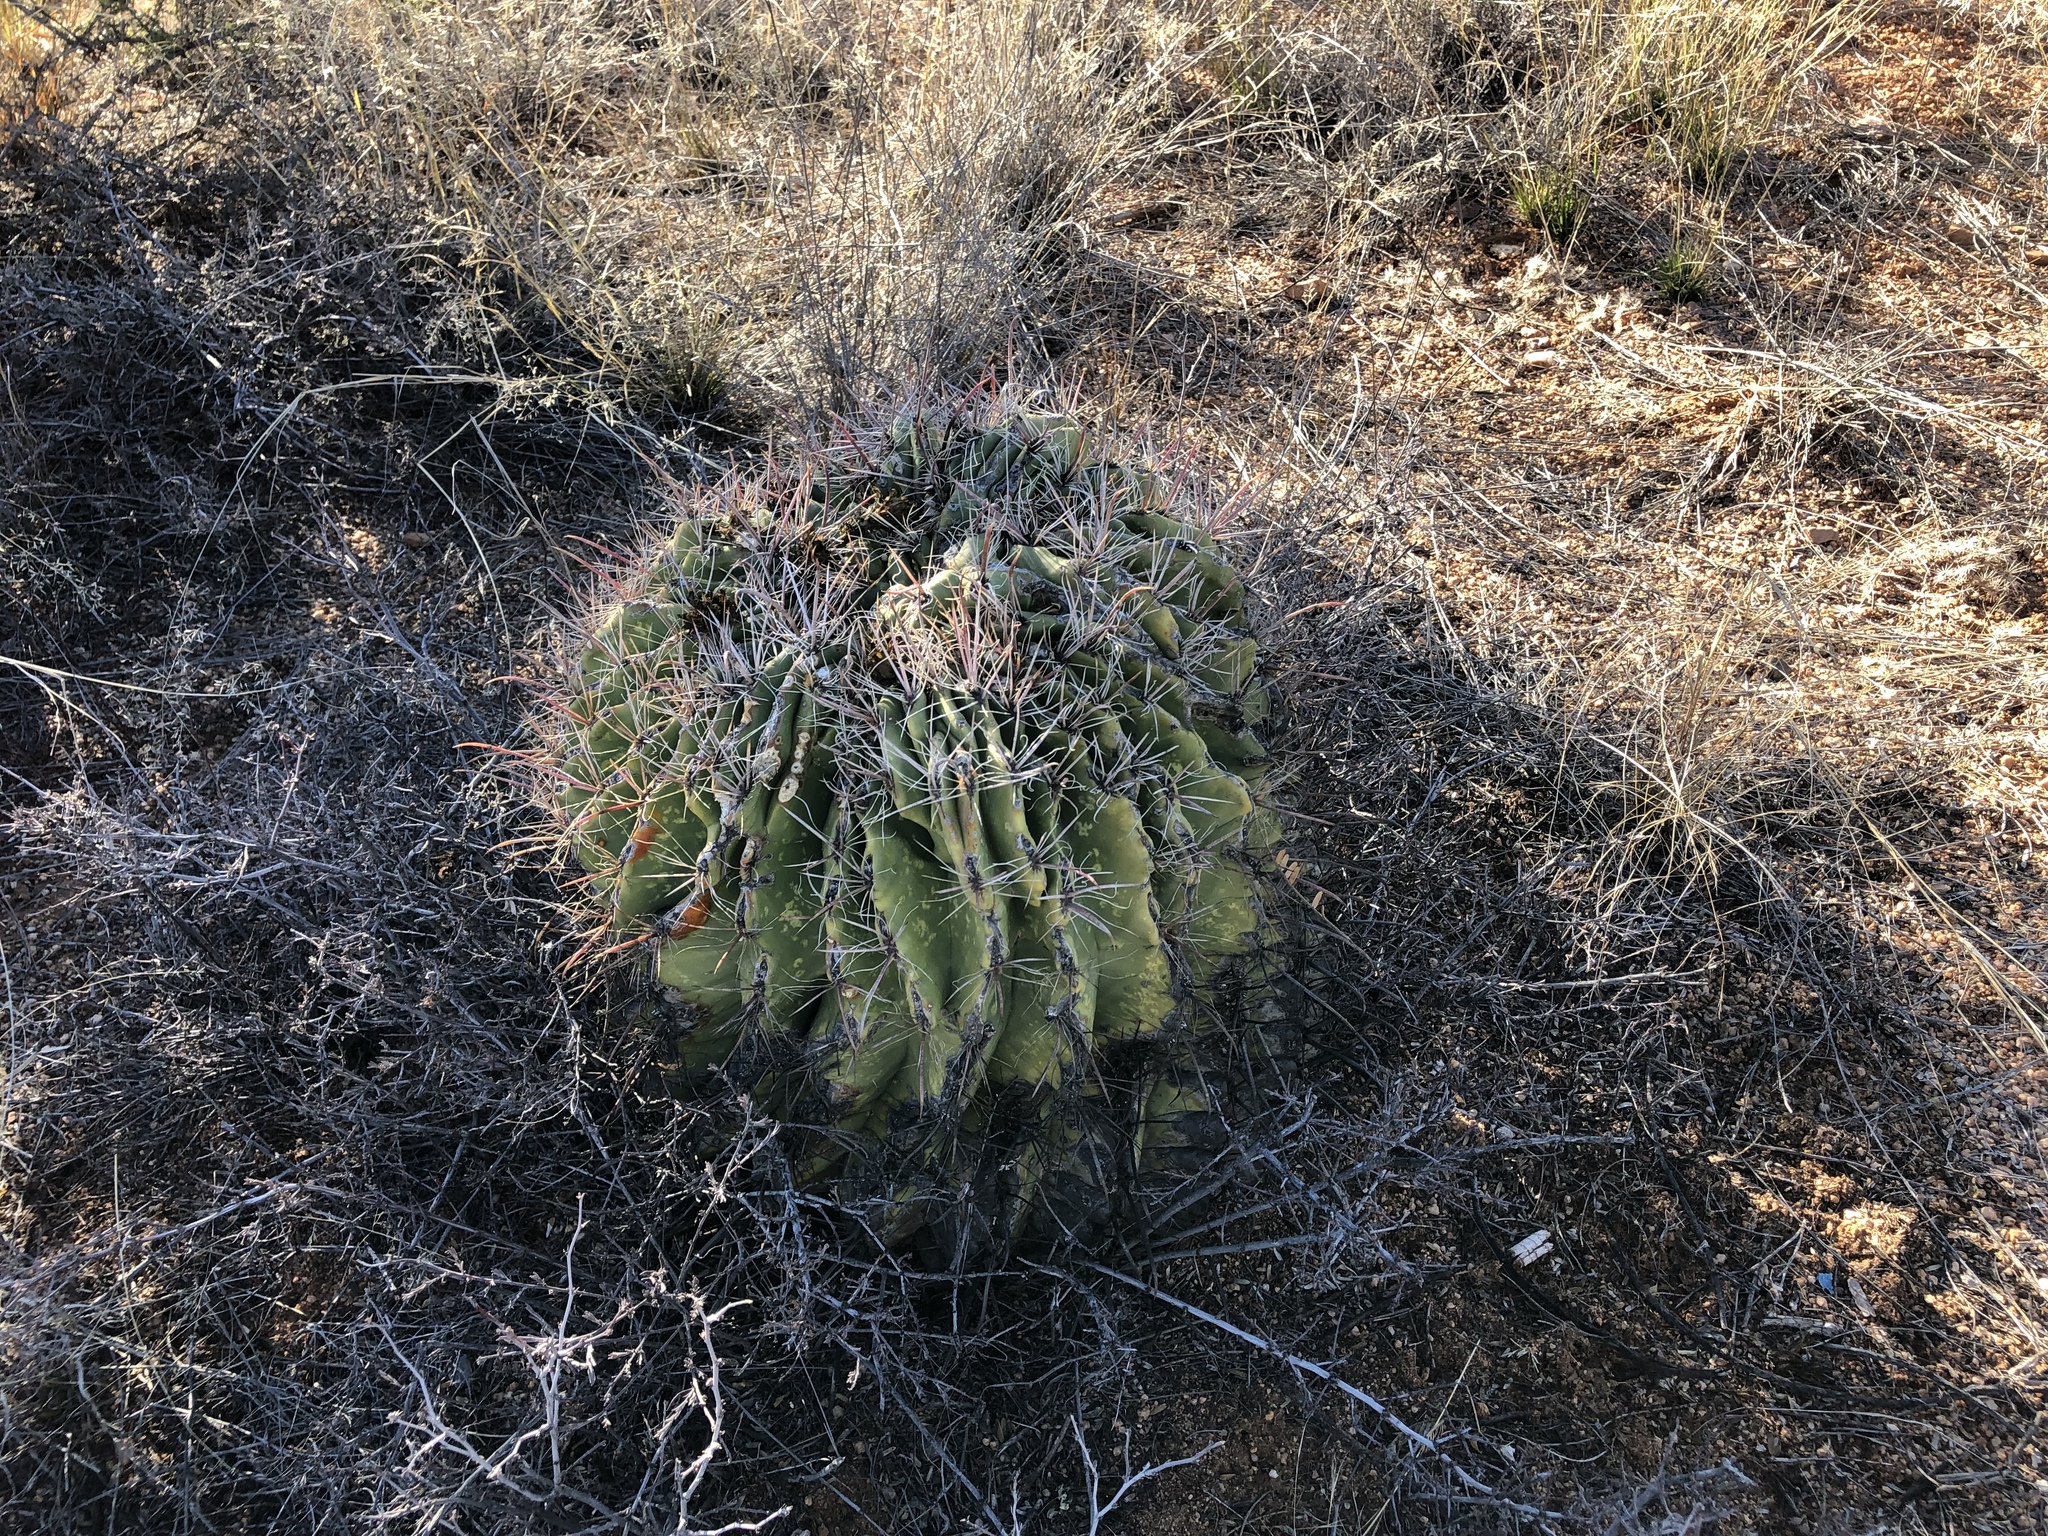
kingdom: Plantae
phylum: Tracheophyta
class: Magnoliopsida
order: Caryophyllales
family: Cactaceae
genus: Ferocactus
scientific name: Ferocactus wislizeni
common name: Candy barrel cactus
